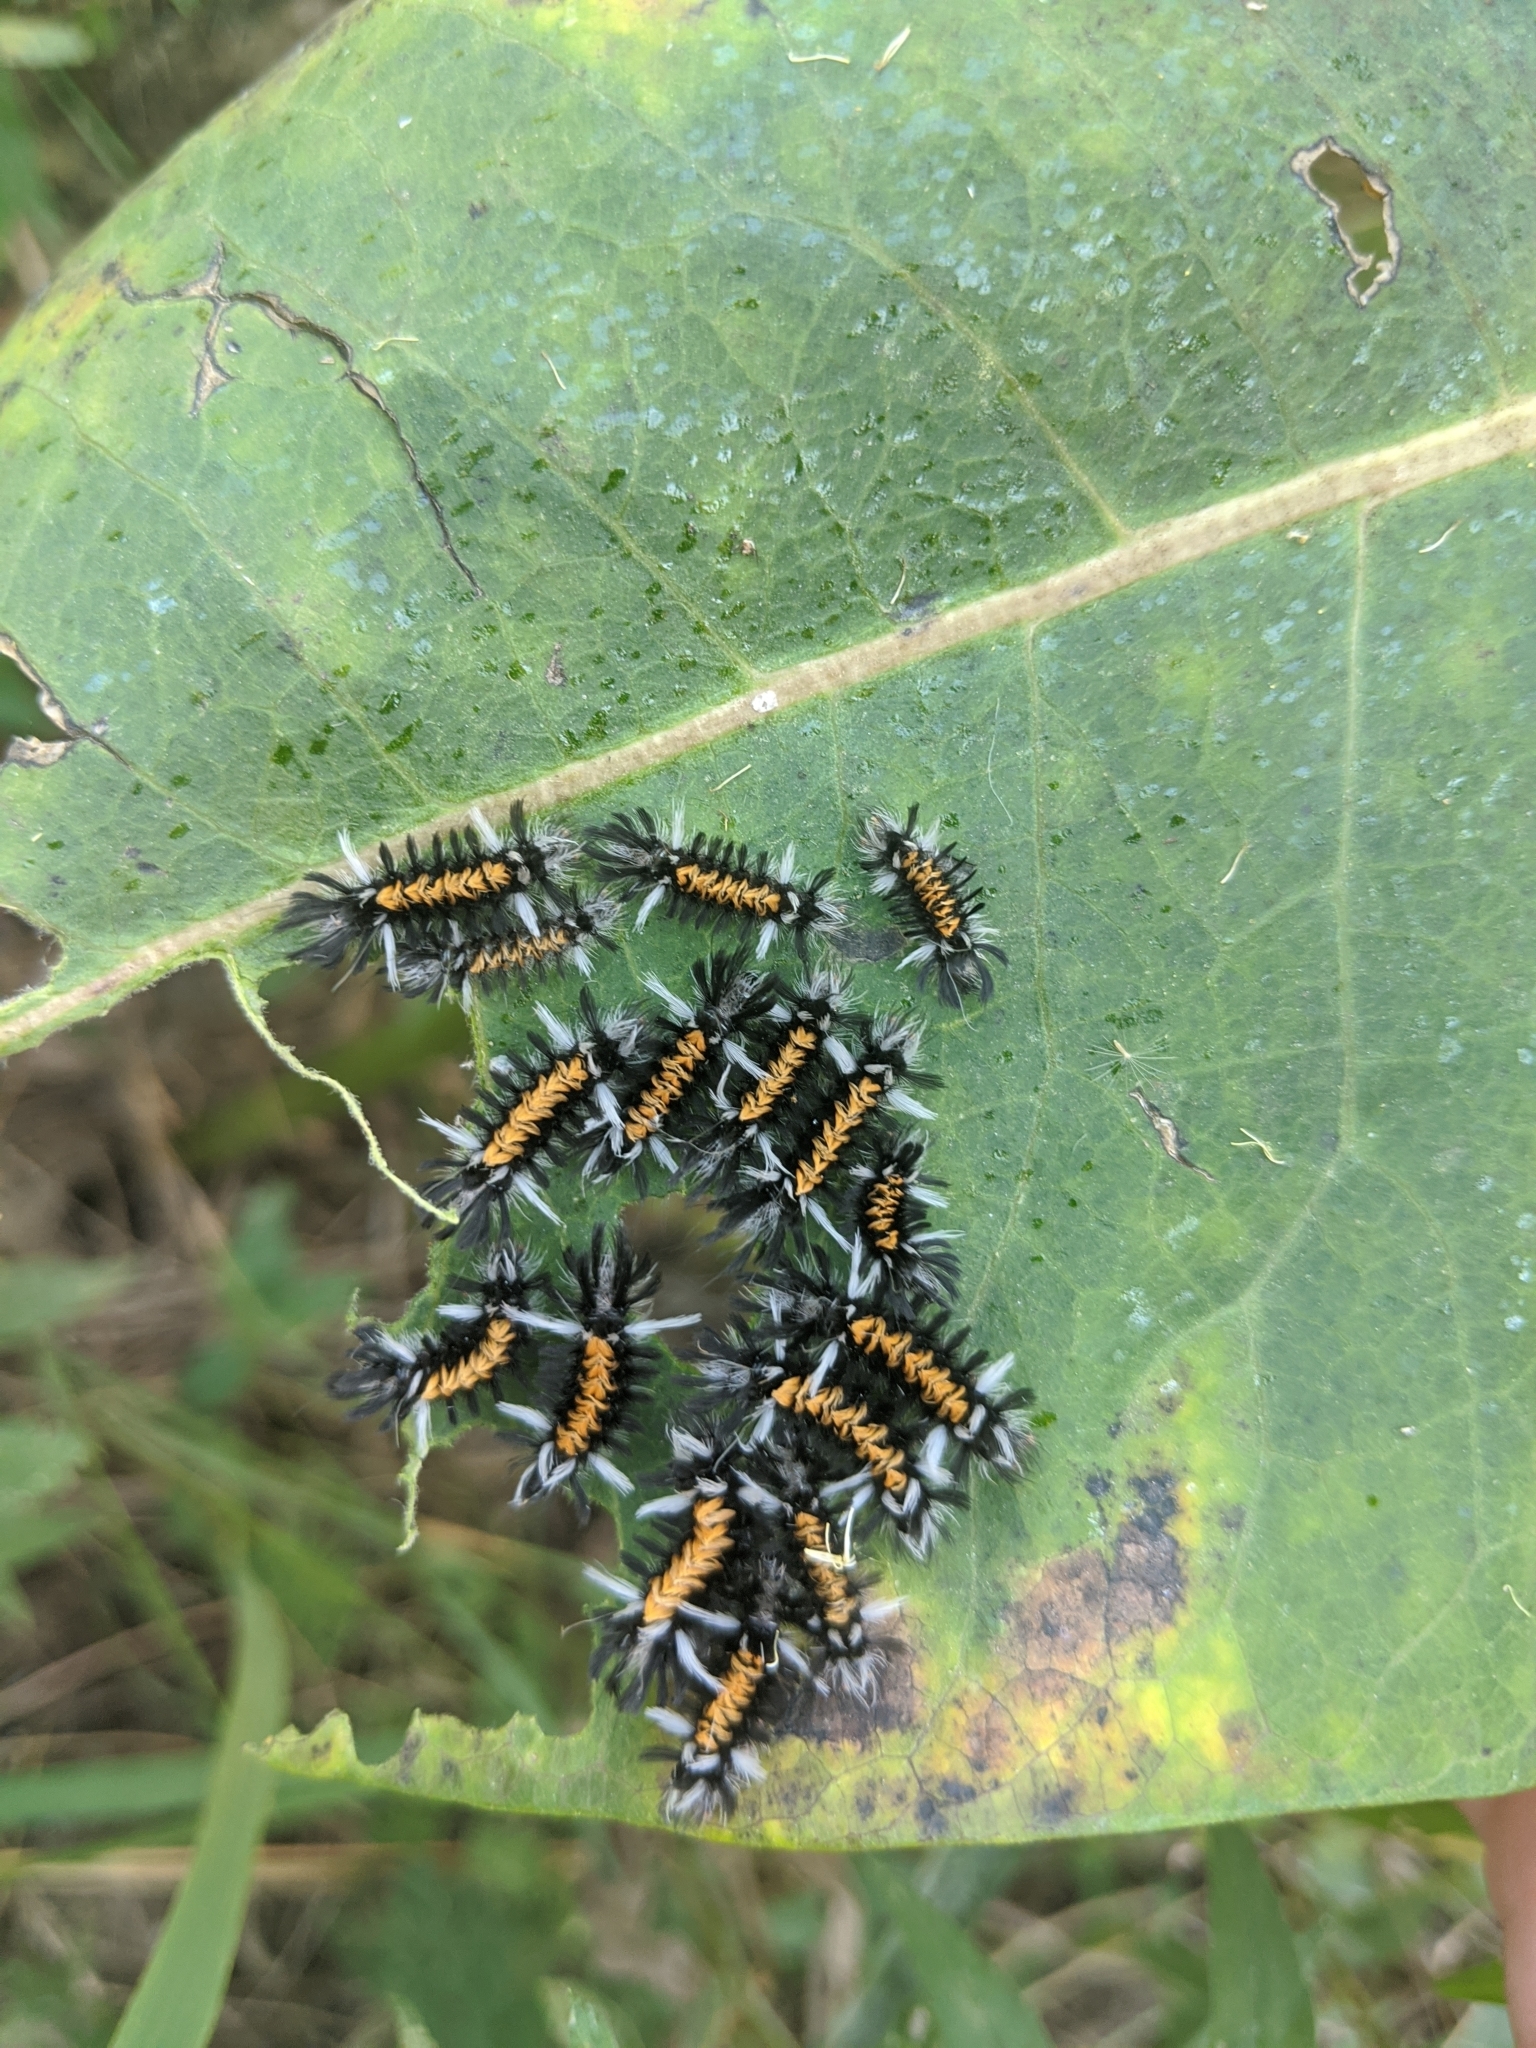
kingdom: Animalia
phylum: Arthropoda
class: Insecta
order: Lepidoptera
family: Erebidae
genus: Euchaetes
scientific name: Euchaetes egle
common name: Milkweed tussock moth
